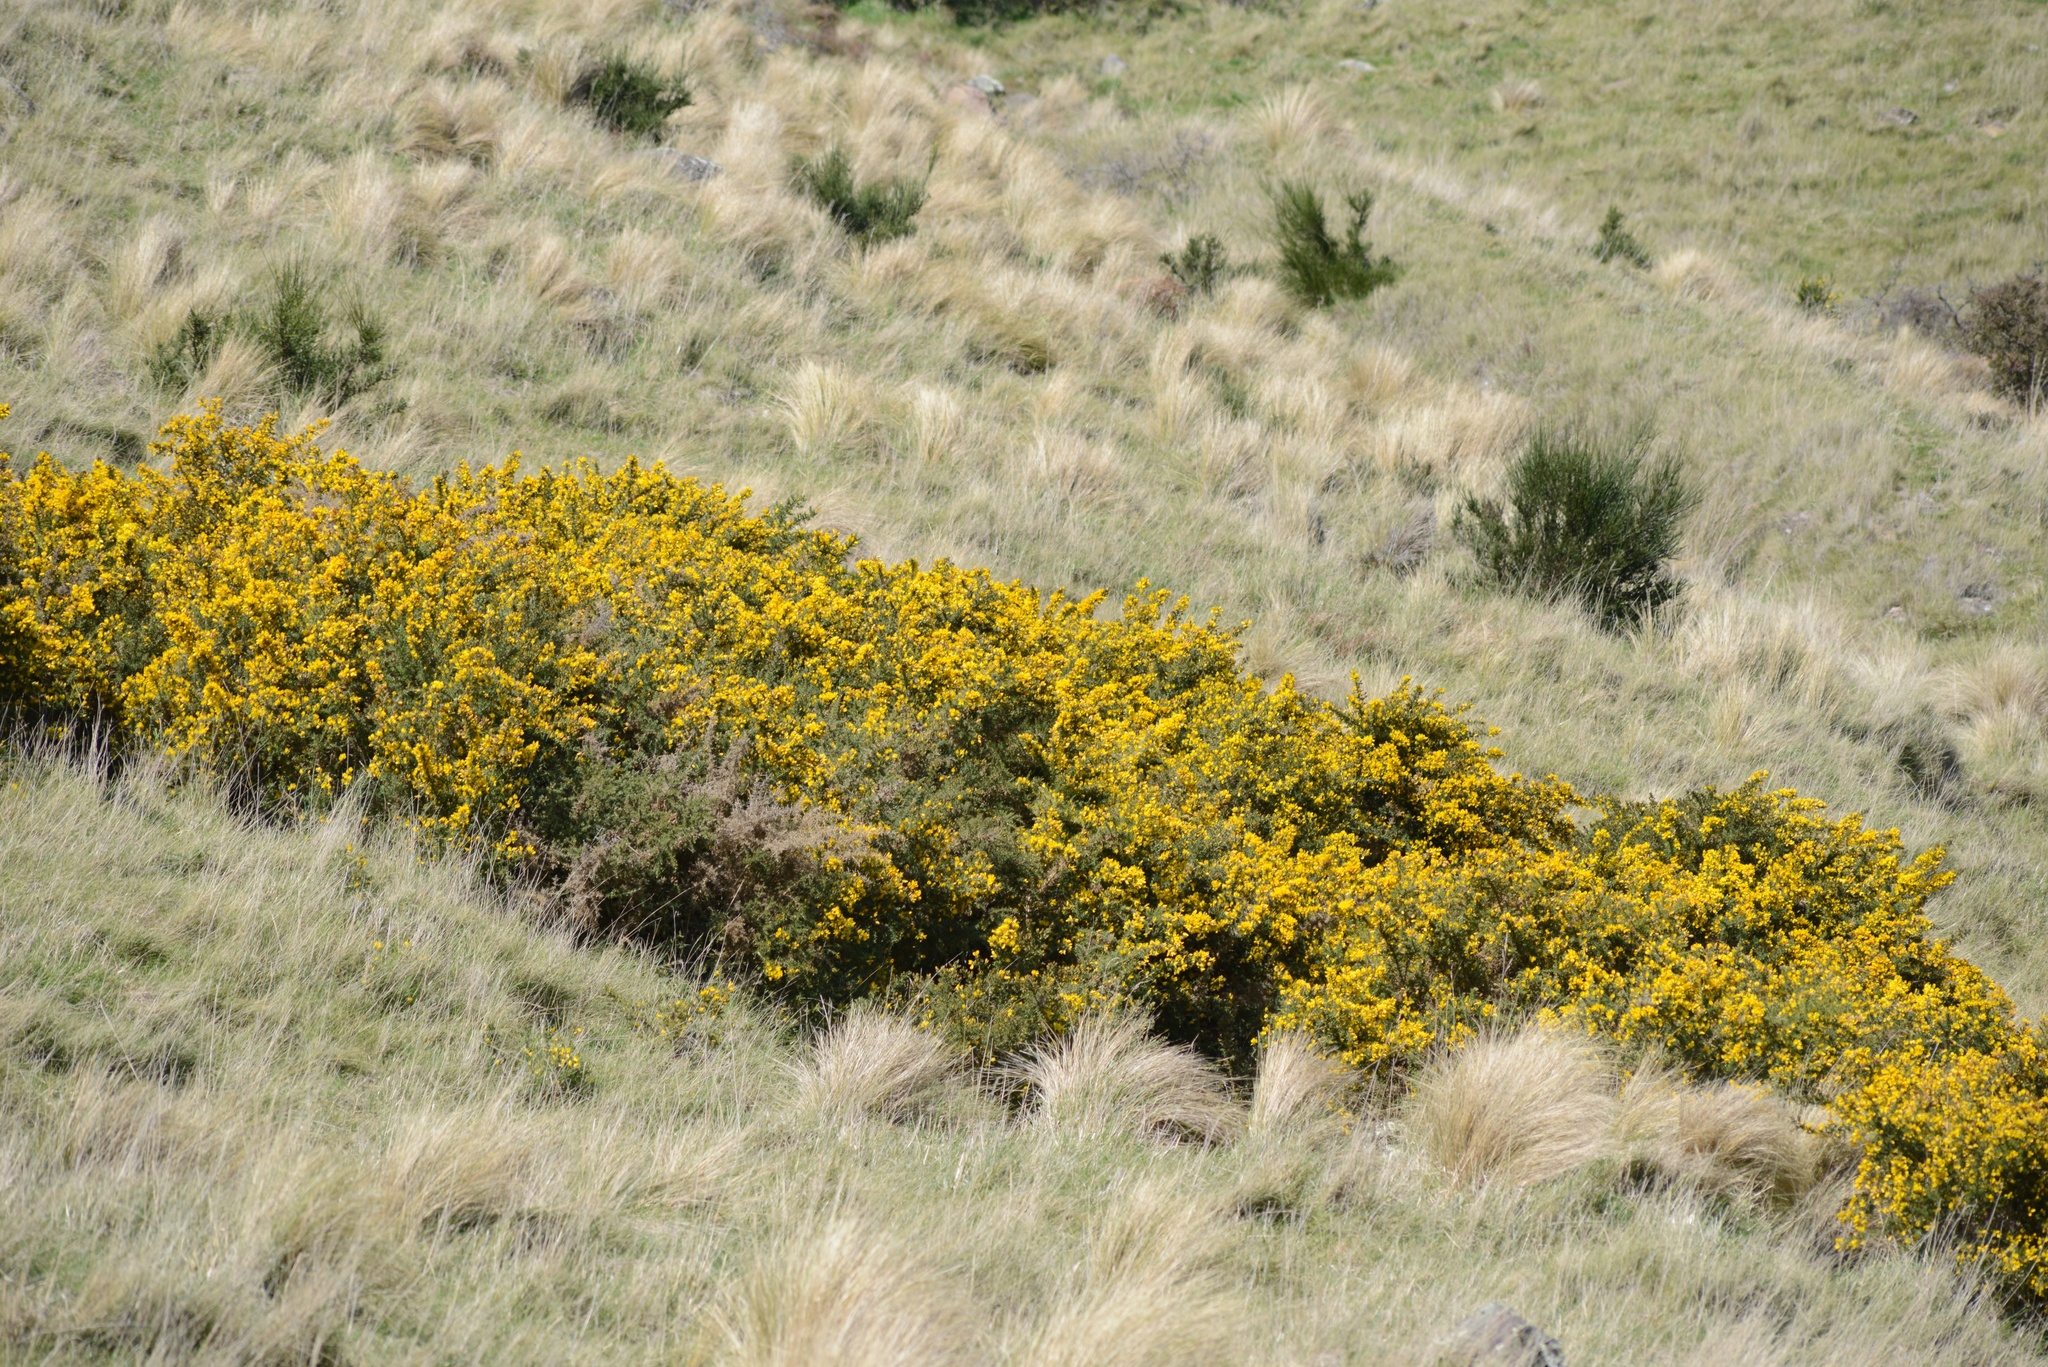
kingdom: Plantae
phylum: Tracheophyta
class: Magnoliopsida
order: Fabales
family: Fabaceae
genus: Ulex
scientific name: Ulex europaeus
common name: Common gorse
